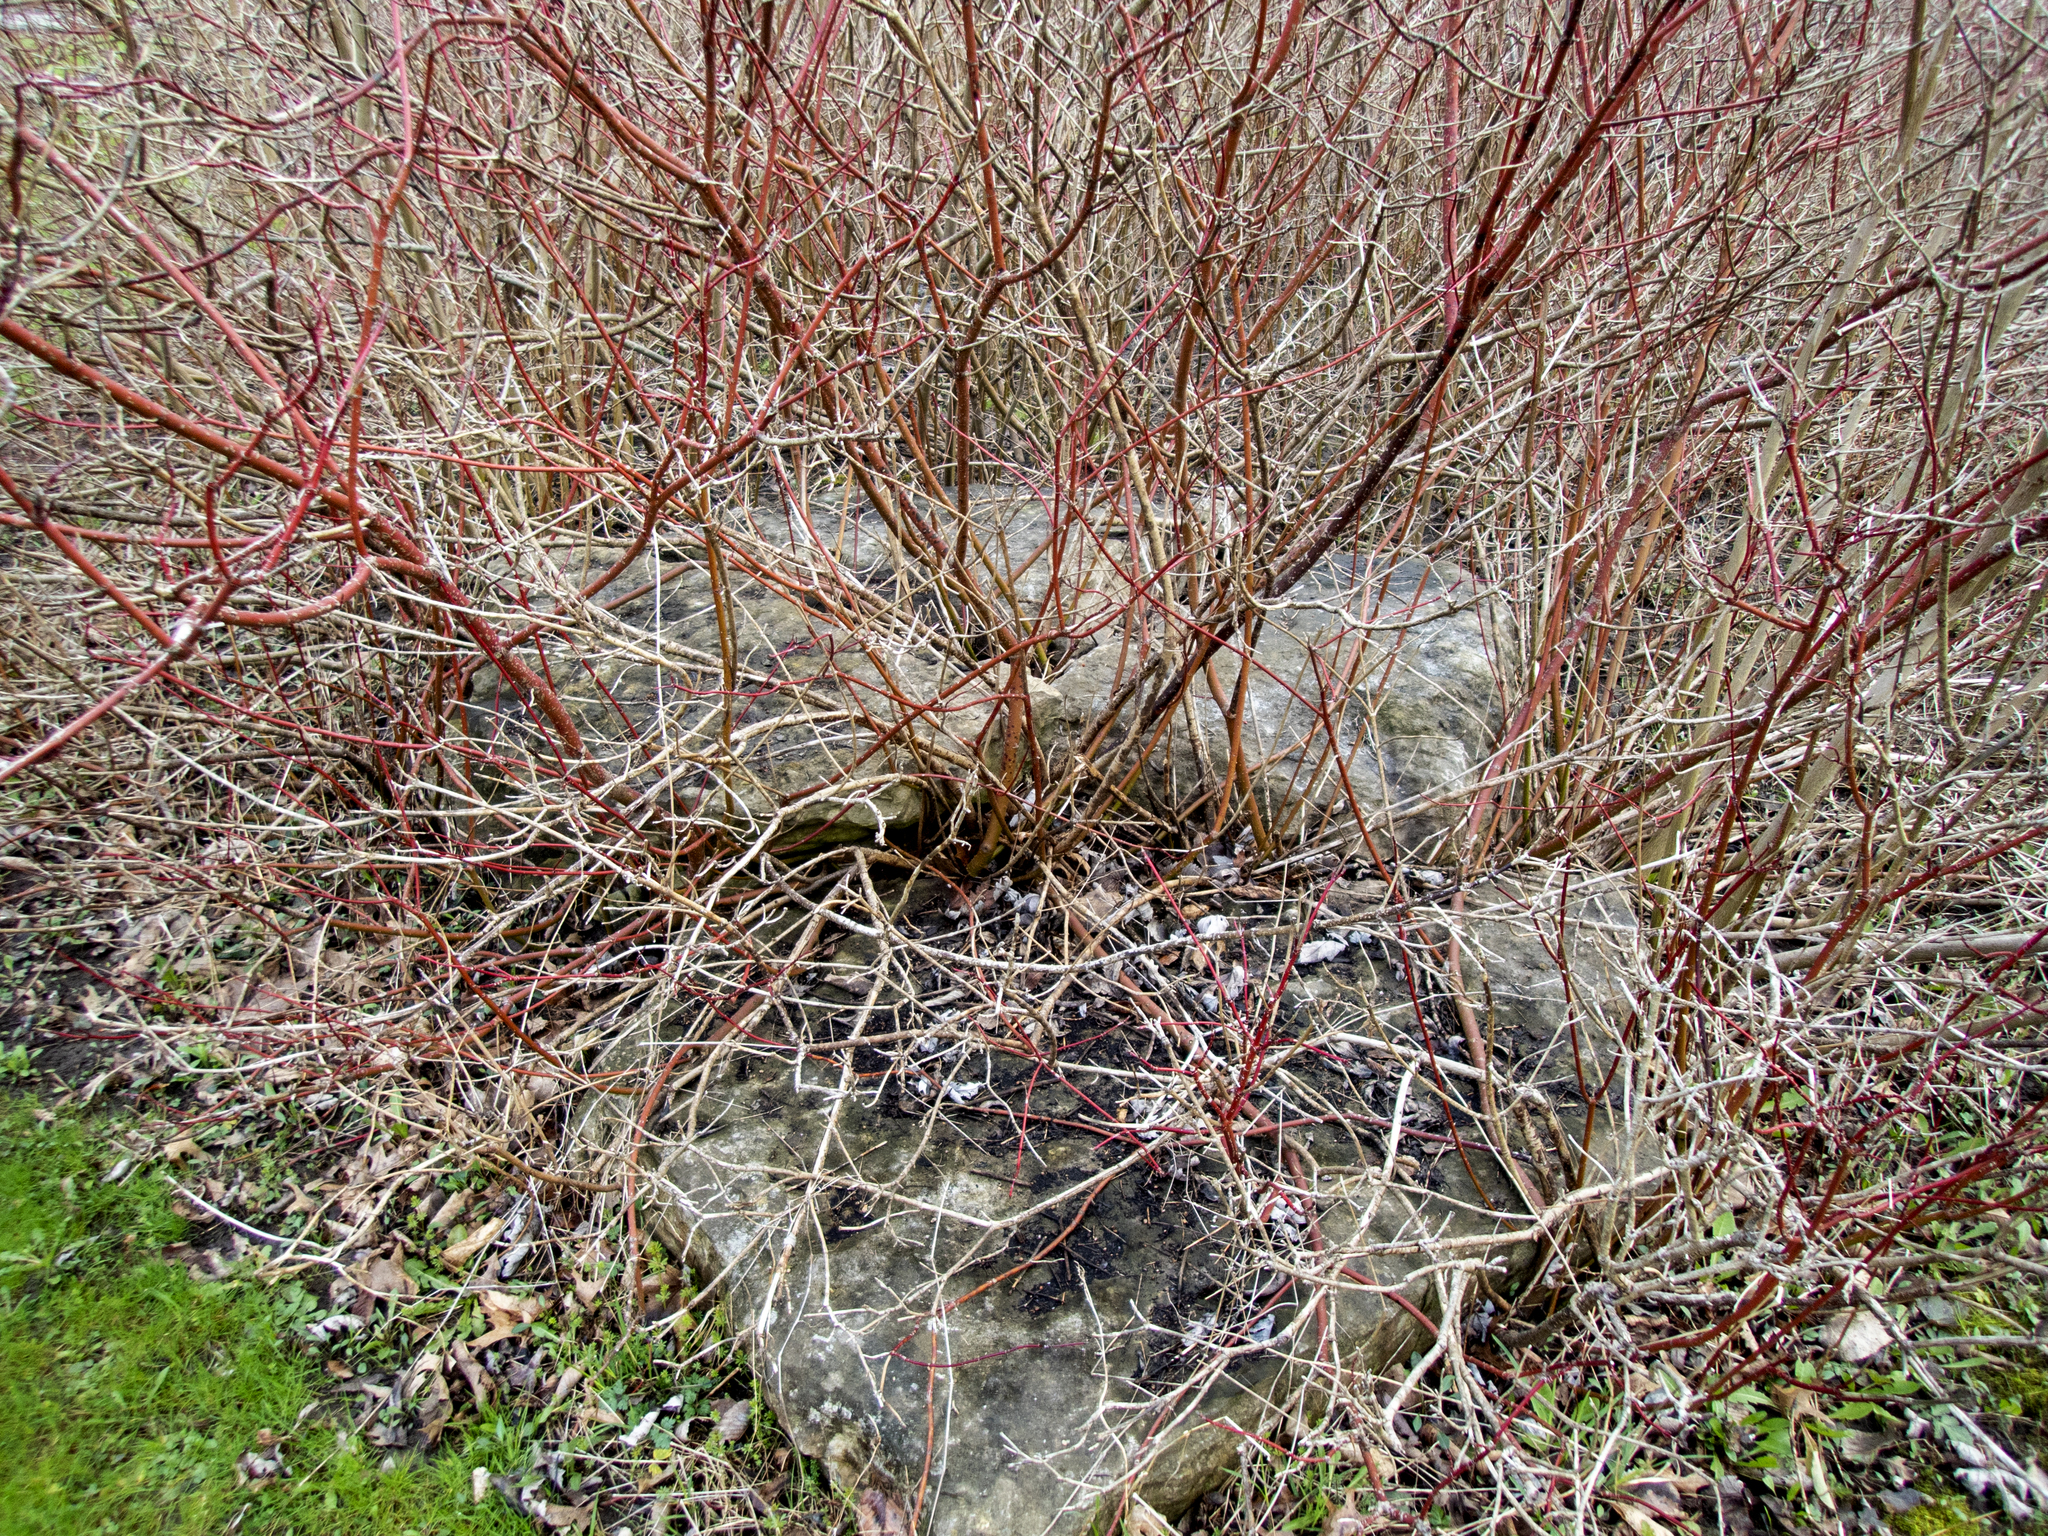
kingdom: Plantae
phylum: Tracheophyta
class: Magnoliopsida
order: Cornales
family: Cornaceae
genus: Cornus
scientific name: Cornus sericea
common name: Red-osier dogwood
